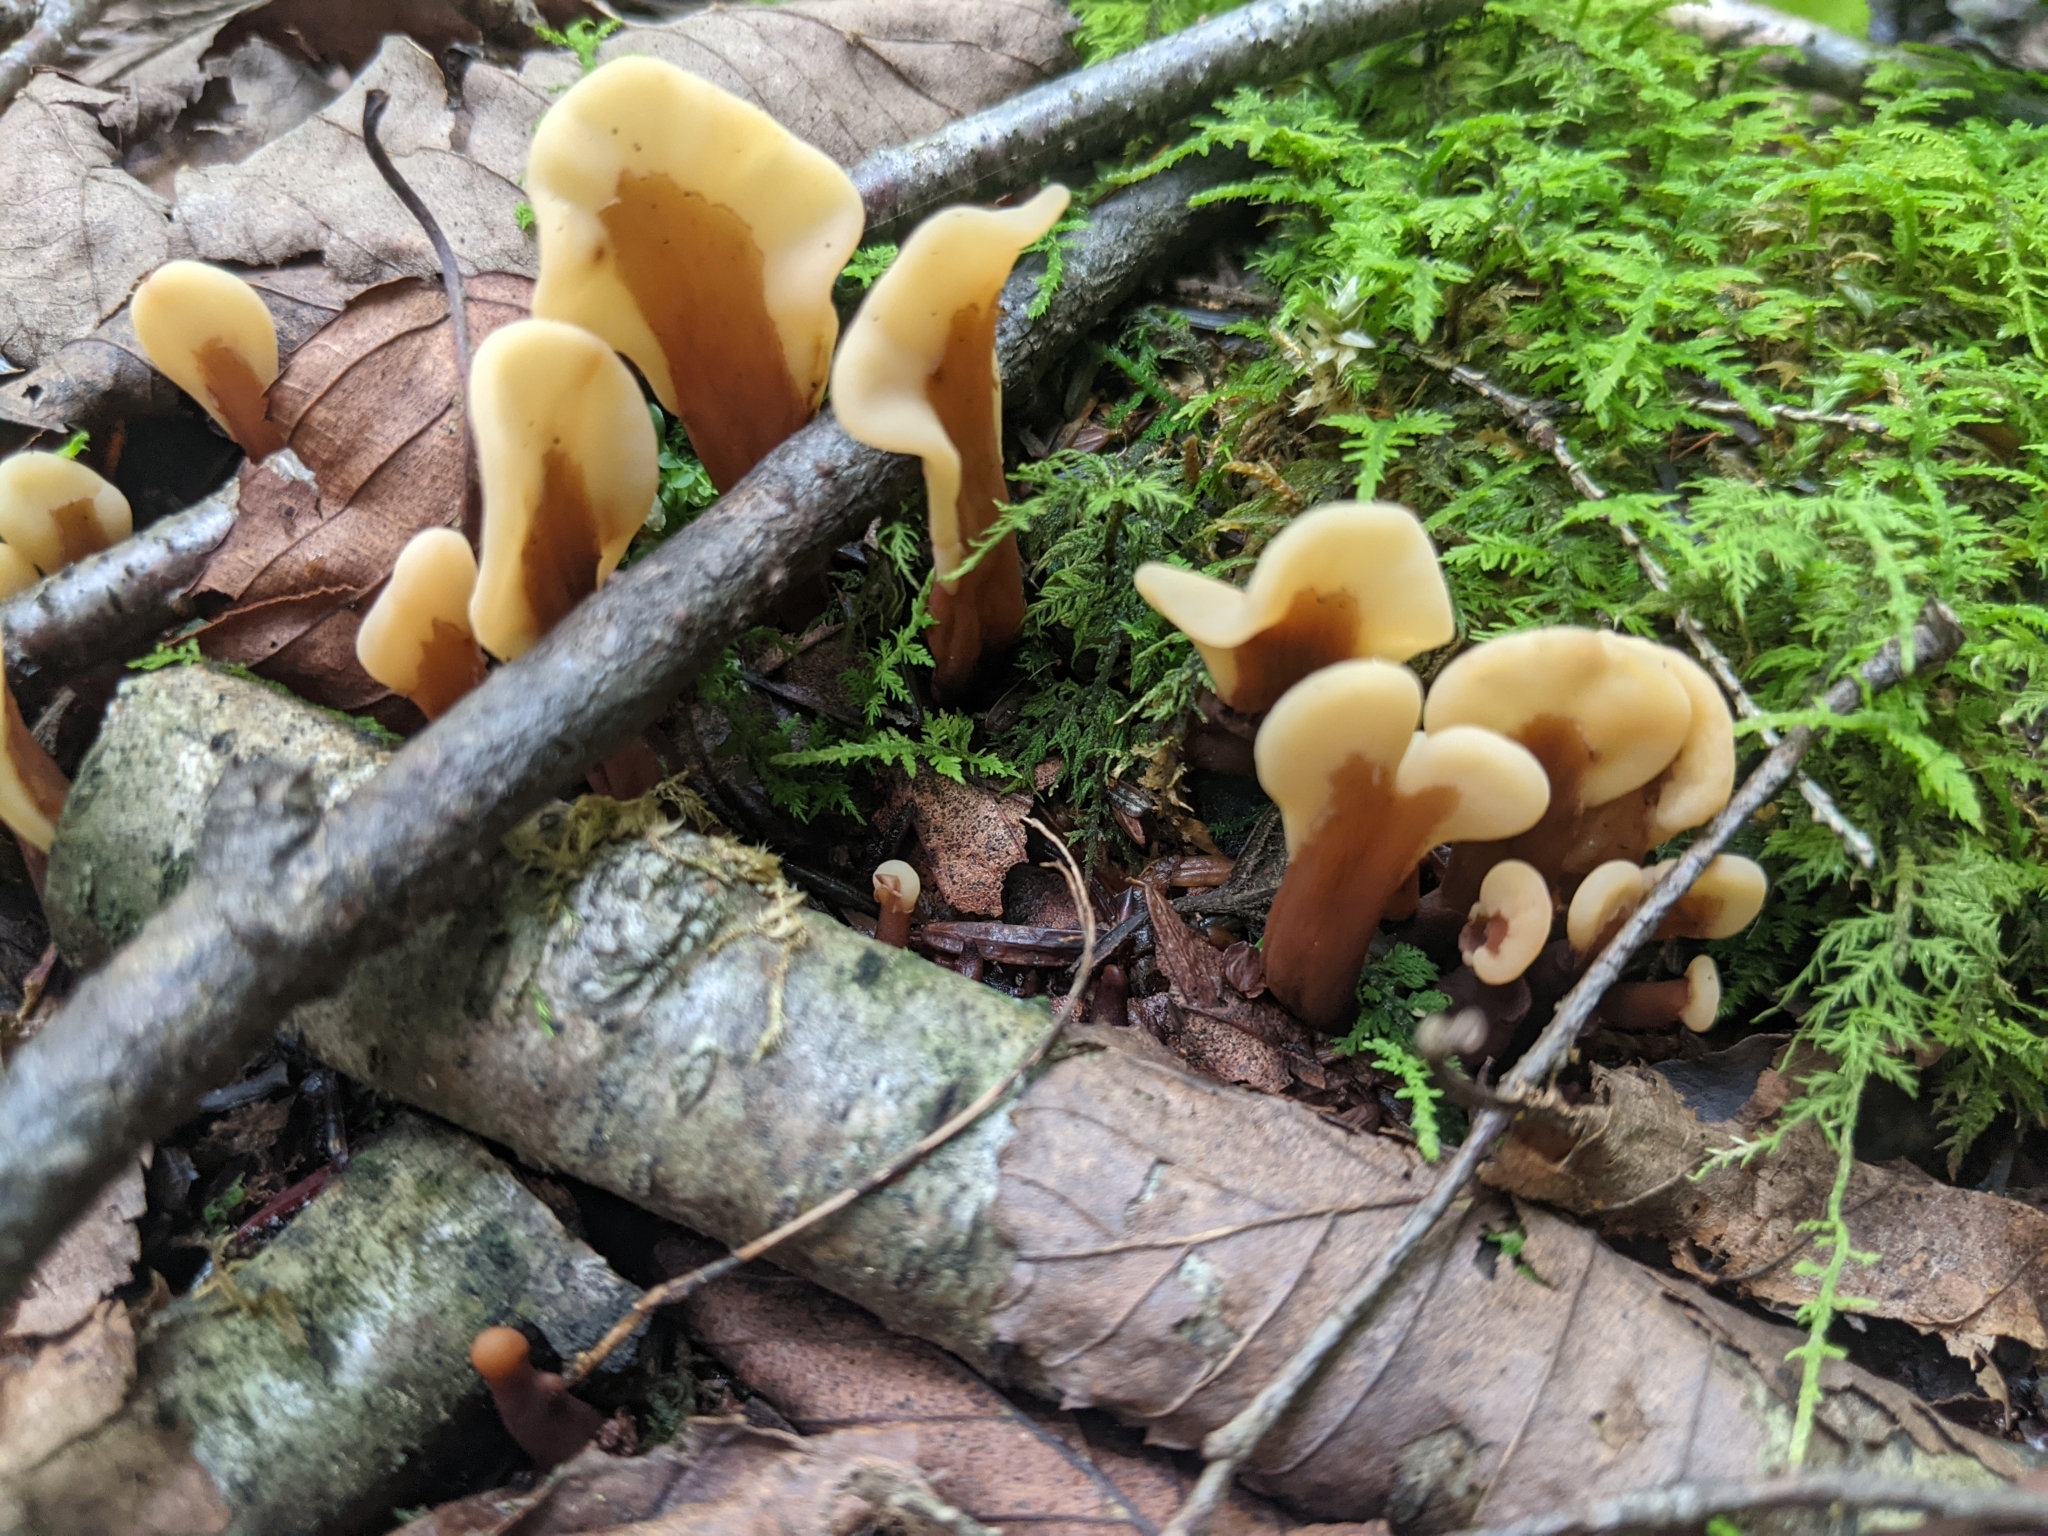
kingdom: Fungi
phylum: Ascomycota
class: Leotiomycetes
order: Rhytismatales
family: Cudoniaceae
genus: Spathulariopsis
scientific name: Spathulariopsis velutipes
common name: Velvet-foot fairy fan
